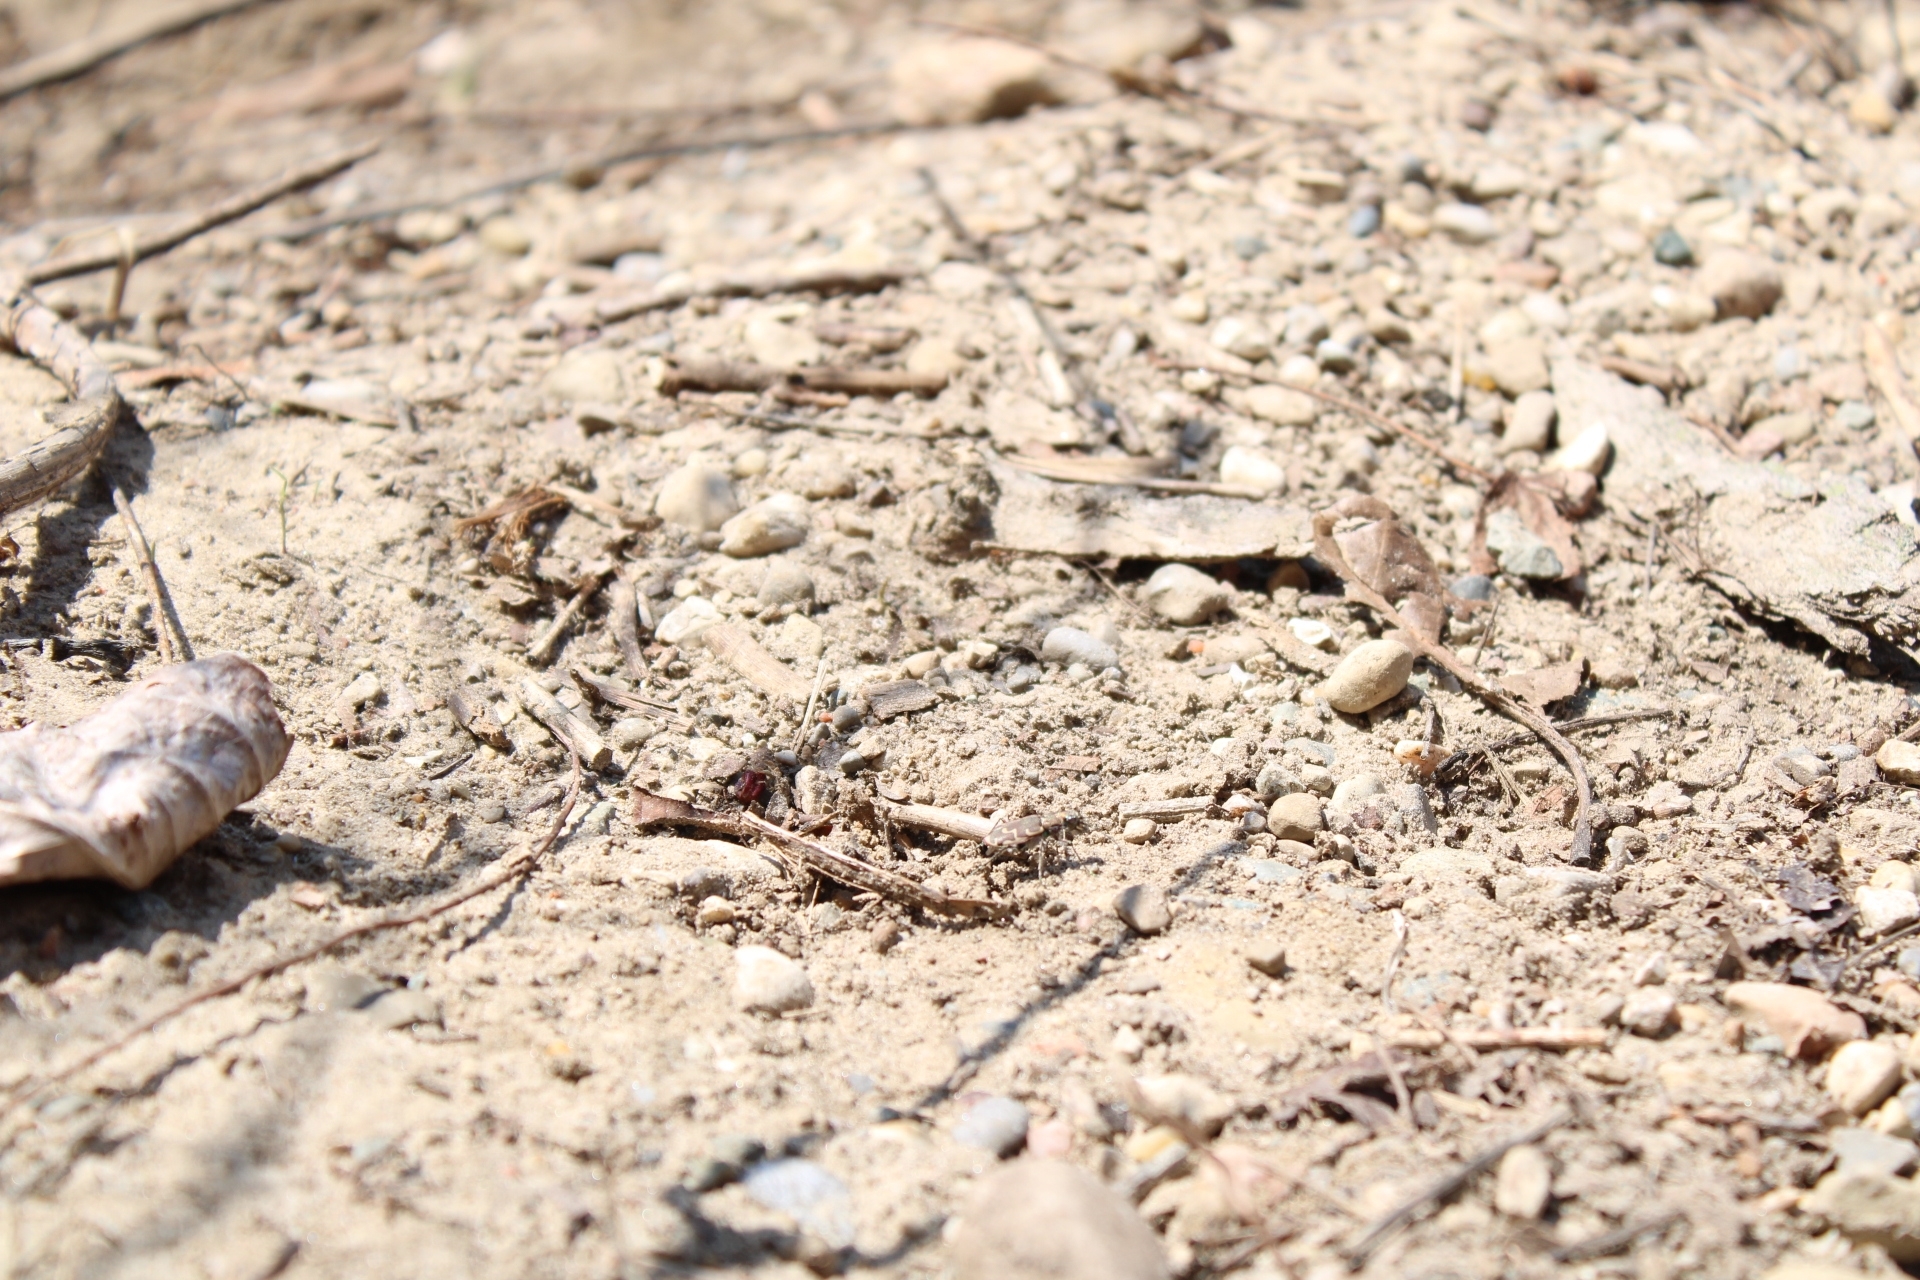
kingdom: Animalia
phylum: Arthropoda
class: Insecta
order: Coleoptera
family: Carabidae
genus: Cicindela
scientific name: Cicindela repanda
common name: Bronzed tiger beetle
